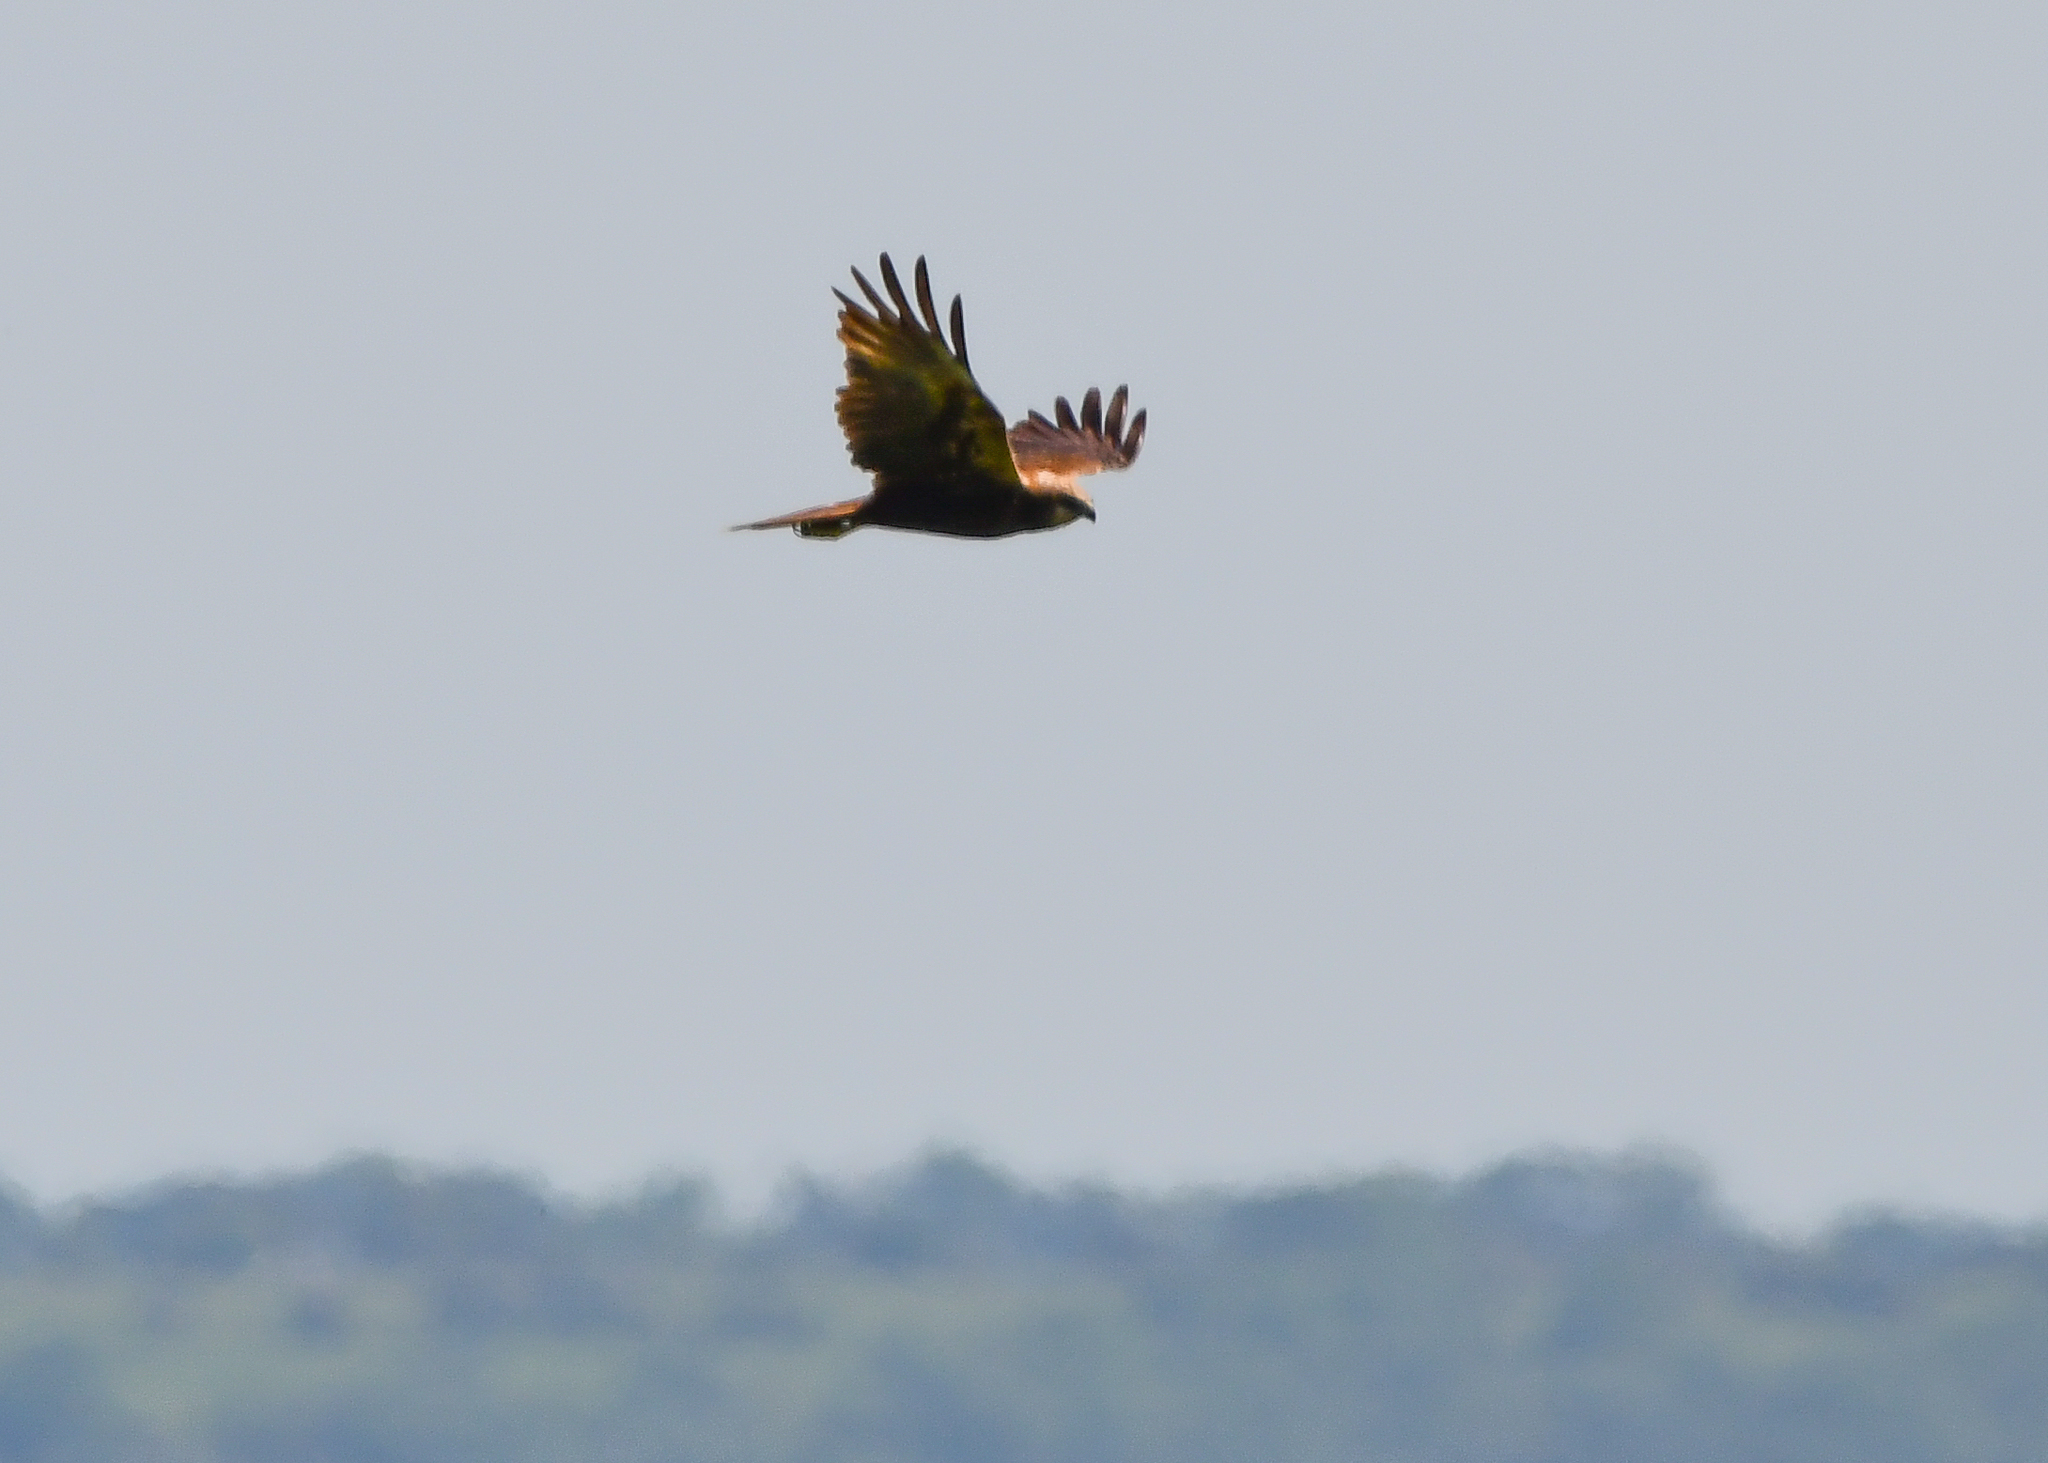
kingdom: Animalia
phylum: Chordata
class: Aves
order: Accipitriformes
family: Accipitridae
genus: Circus
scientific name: Circus aeruginosus
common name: Western marsh harrier
